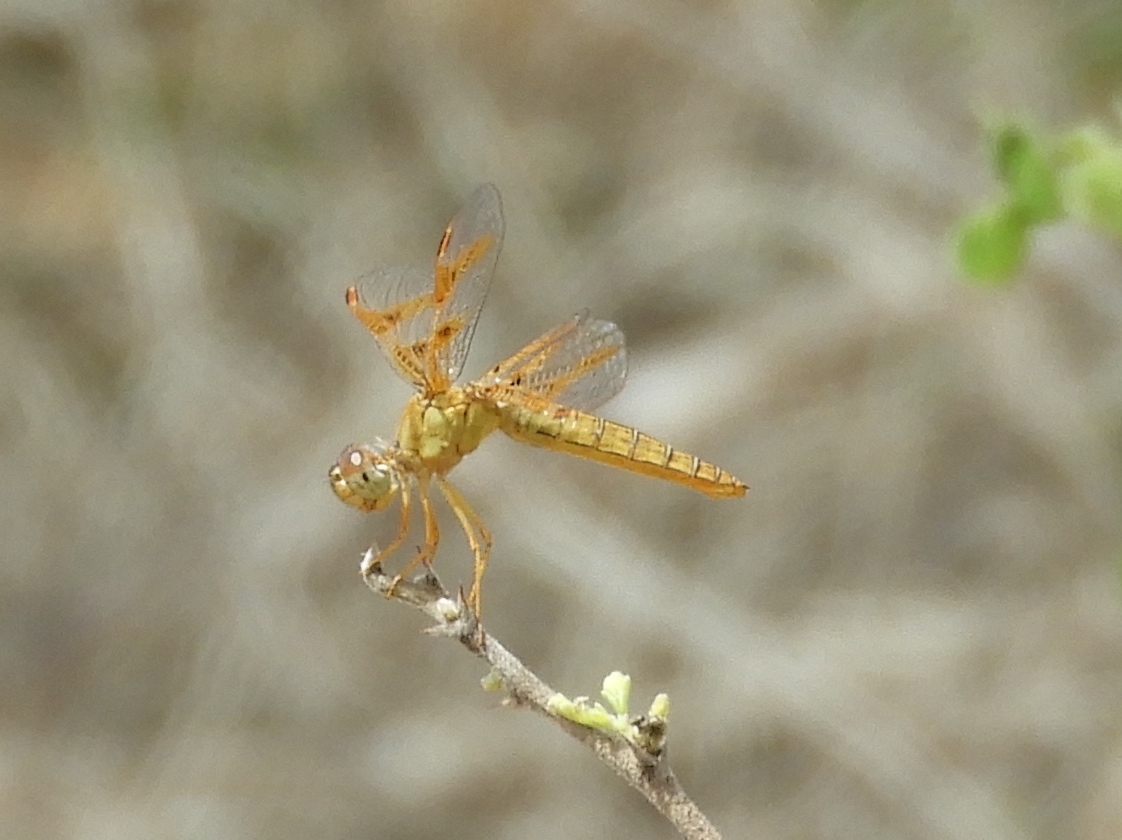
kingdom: Animalia
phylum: Arthropoda
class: Insecta
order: Odonata
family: Libellulidae
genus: Perithemis
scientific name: Perithemis intensa
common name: Mexican amberwing
